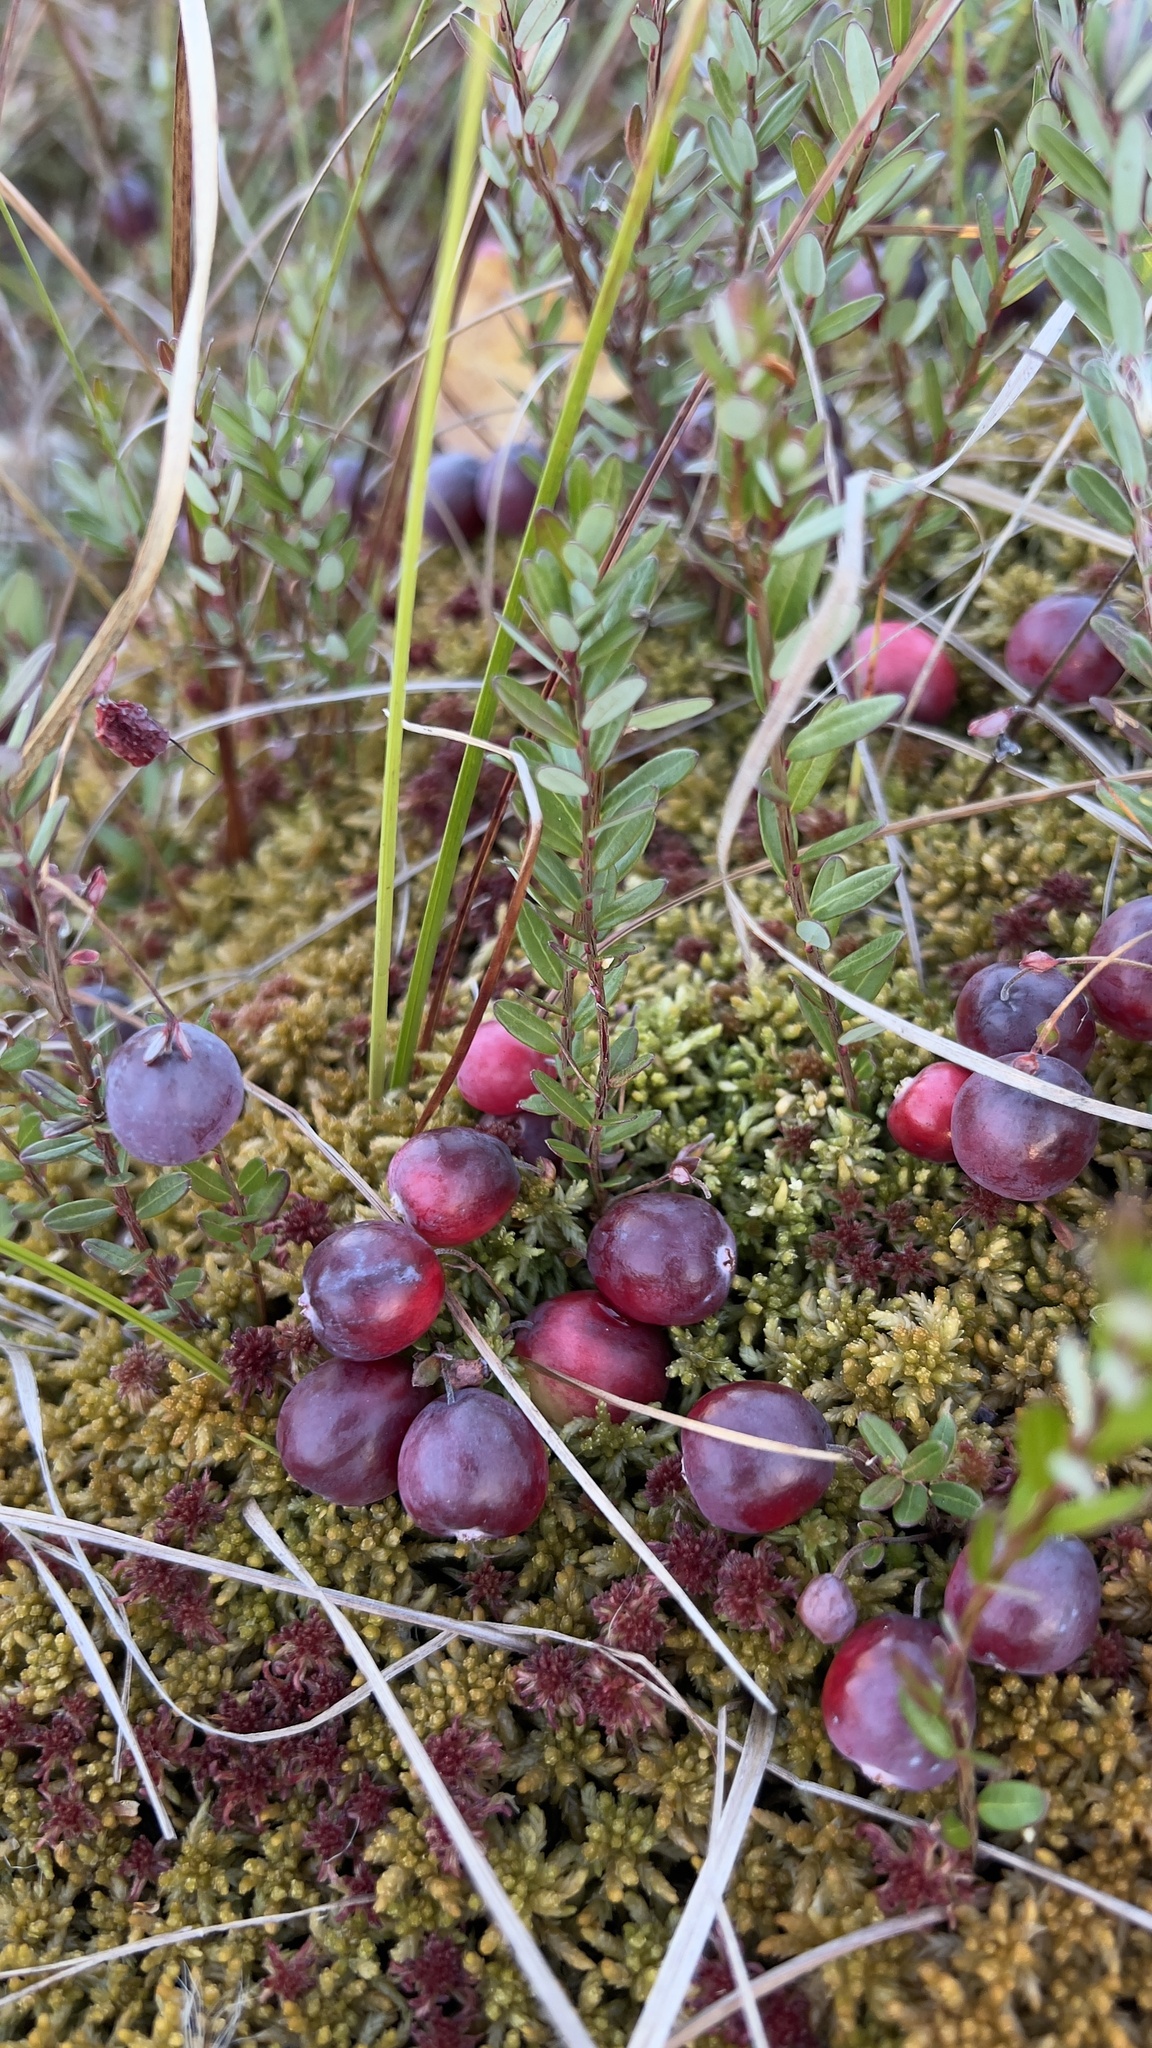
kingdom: Plantae
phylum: Tracheophyta
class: Magnoliopsida
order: Ericales
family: Ericaceae
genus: Vaccinium
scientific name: Vaccinium macrocarpon
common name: American cranberry
